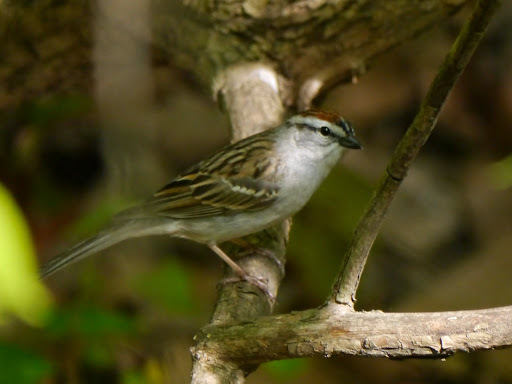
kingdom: Animalia
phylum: Chordata
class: Aves
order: Passeriformes
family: Passerellidae
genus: Spizella
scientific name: Spizella passerina
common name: Chipping sparrow
